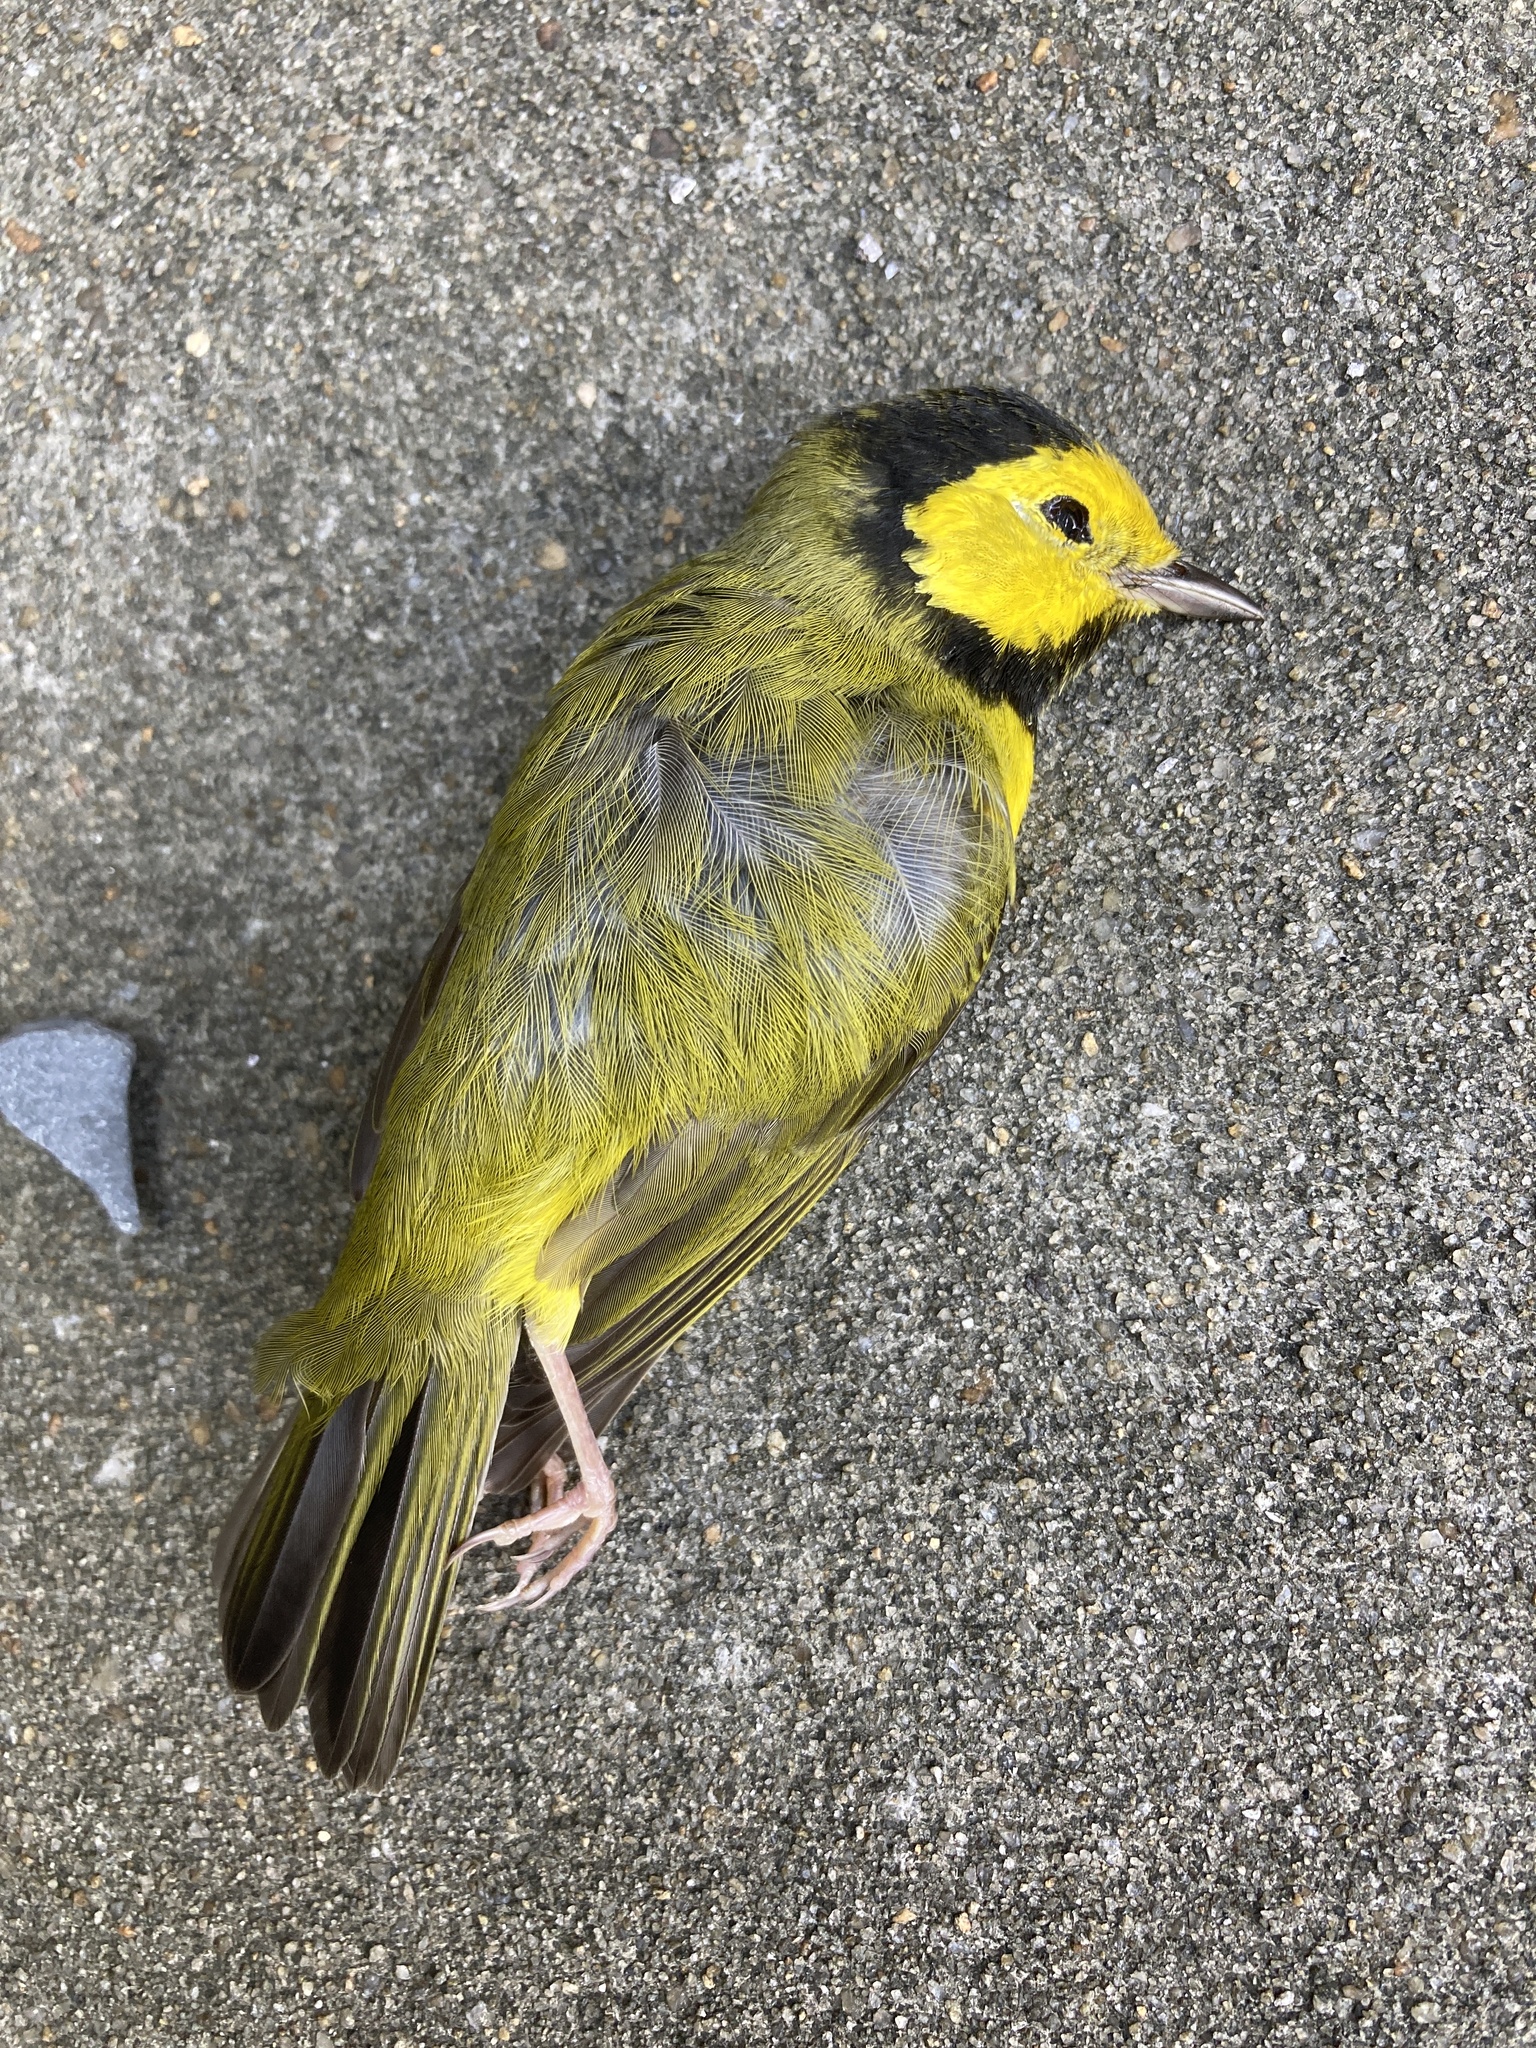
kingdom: Animalia
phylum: Chordata
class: Aves
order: Passeriformes
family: Parulidae
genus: Setophaga
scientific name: Setophaga citrina
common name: Hooded warbler
